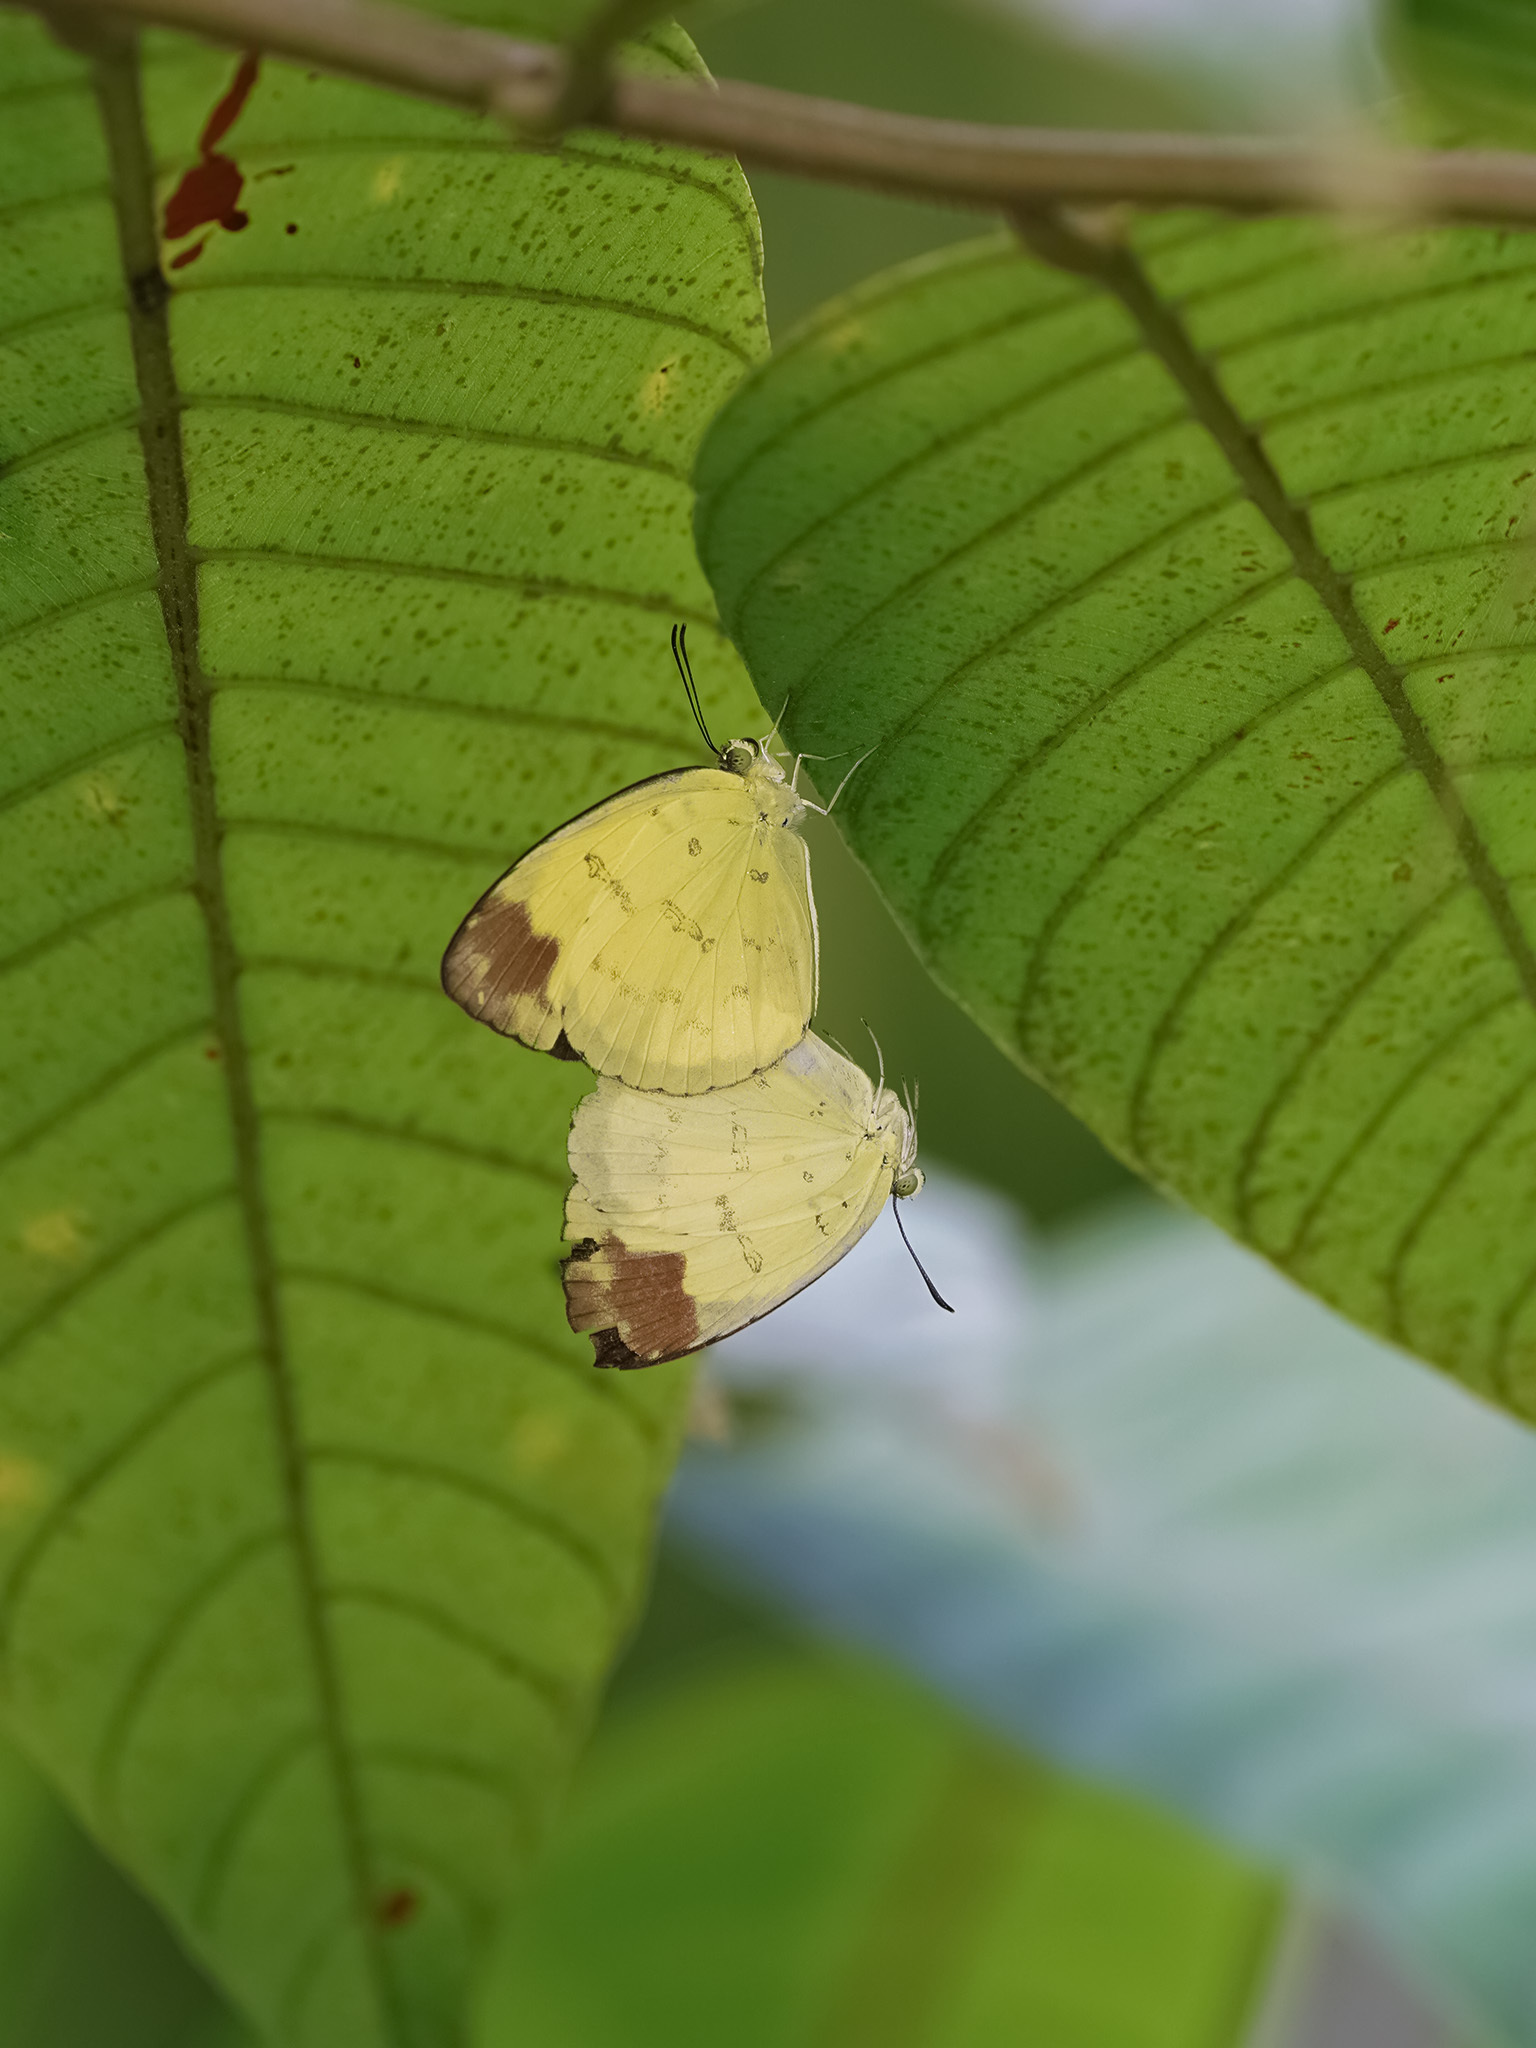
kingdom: Animalia
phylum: Arthropoda
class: Insecta
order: Lepidoptera
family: Pieridae
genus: Eurema
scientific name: Eurema simulatrix
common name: Hill grass yellow
